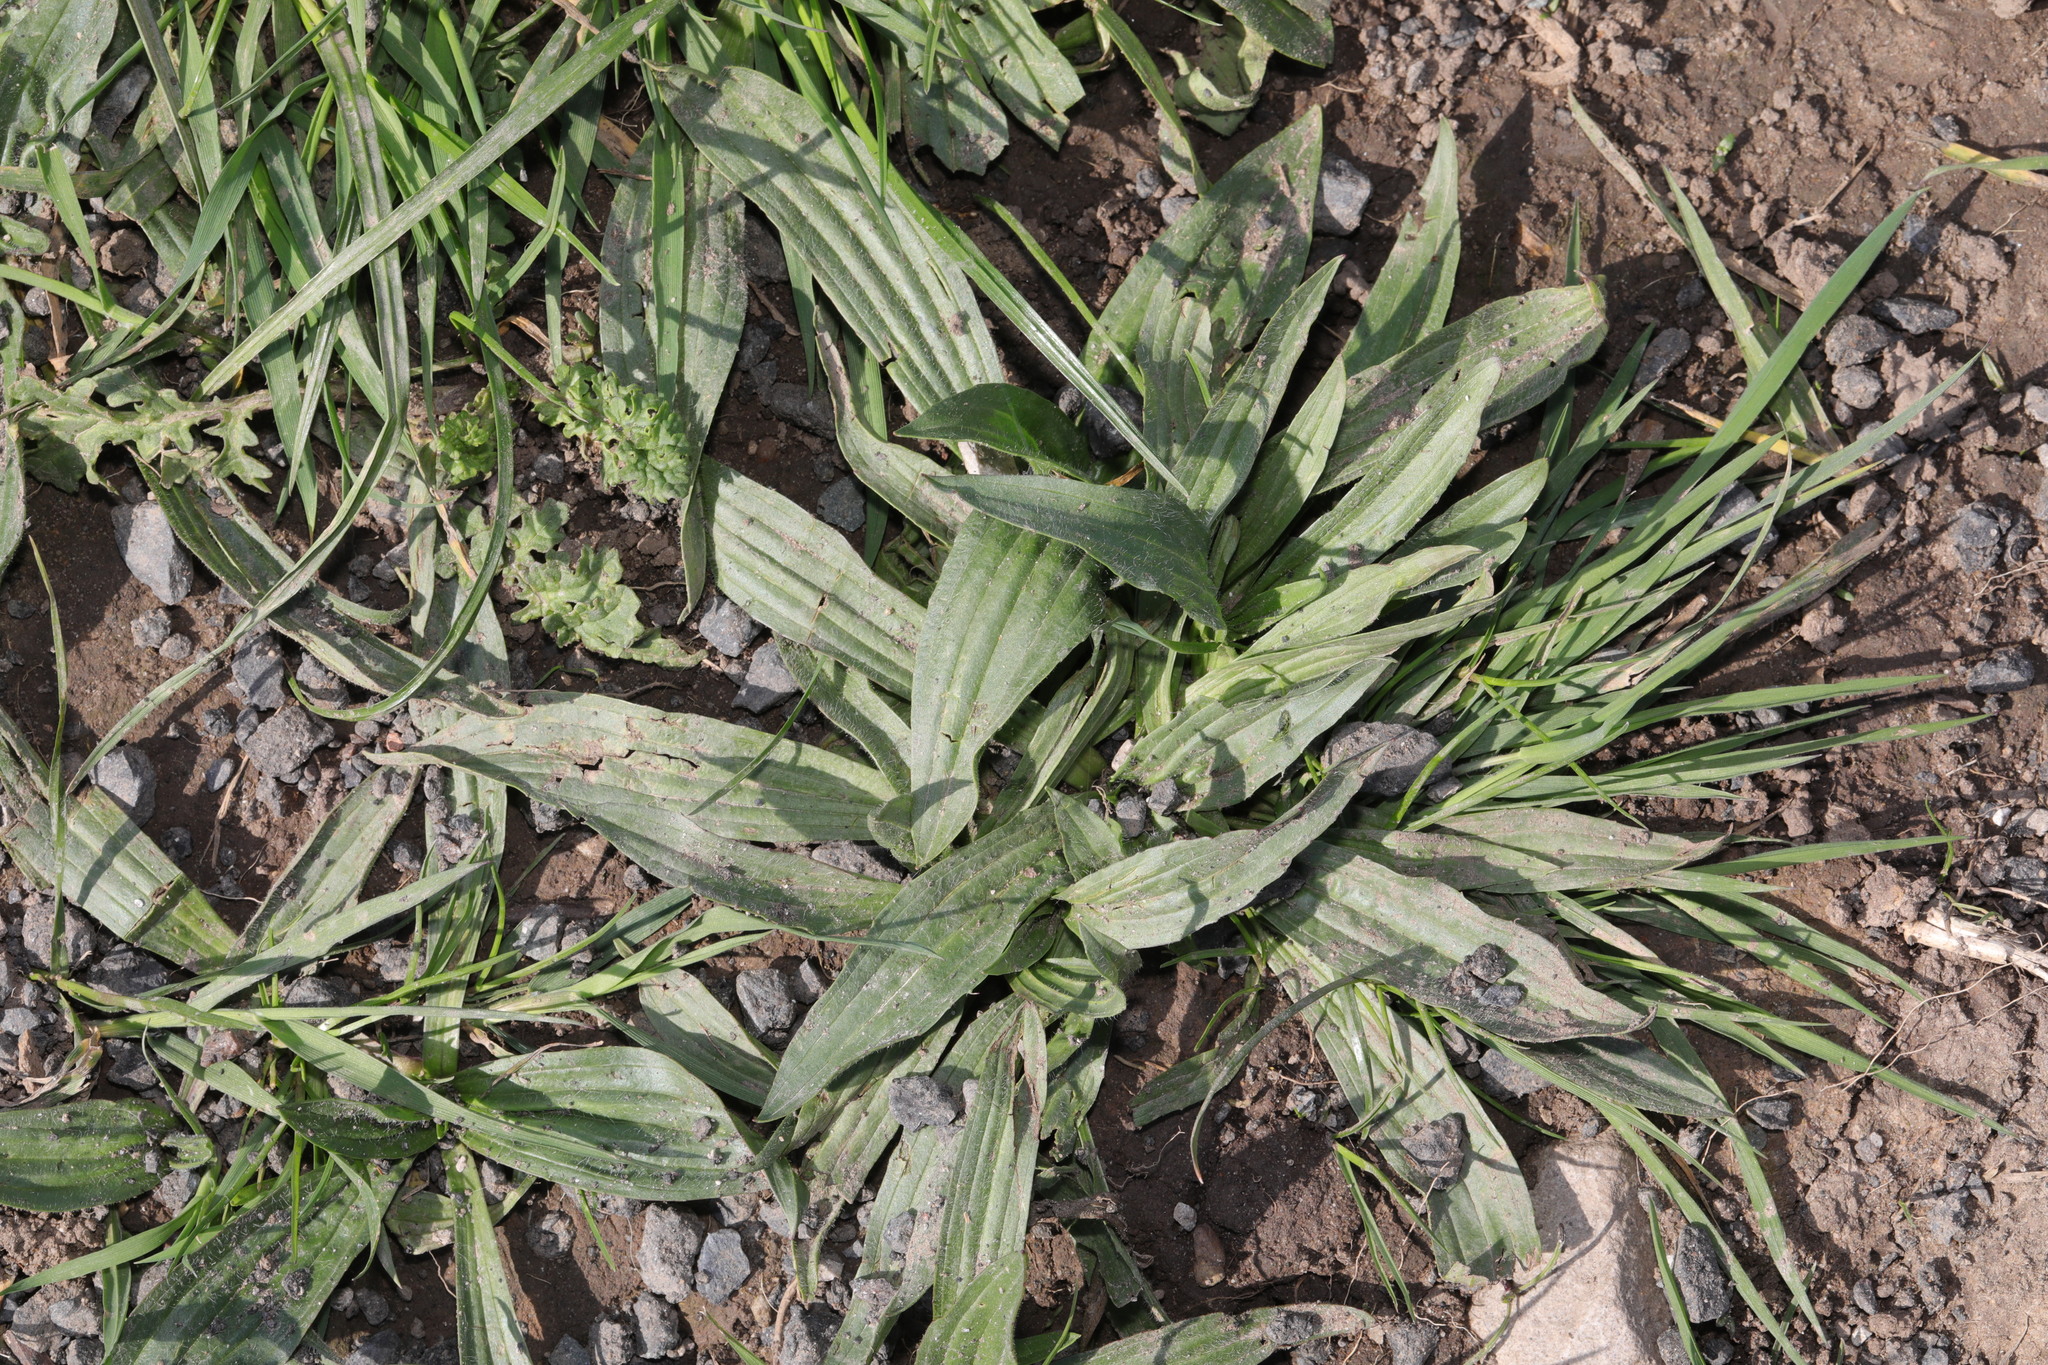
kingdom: Plantae
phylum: Tracheophyta
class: Magnoliopsida
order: Lamiales
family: Plantaginaceae
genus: Plantago
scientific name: Plantago lanceolata
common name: Ribwort plantain
